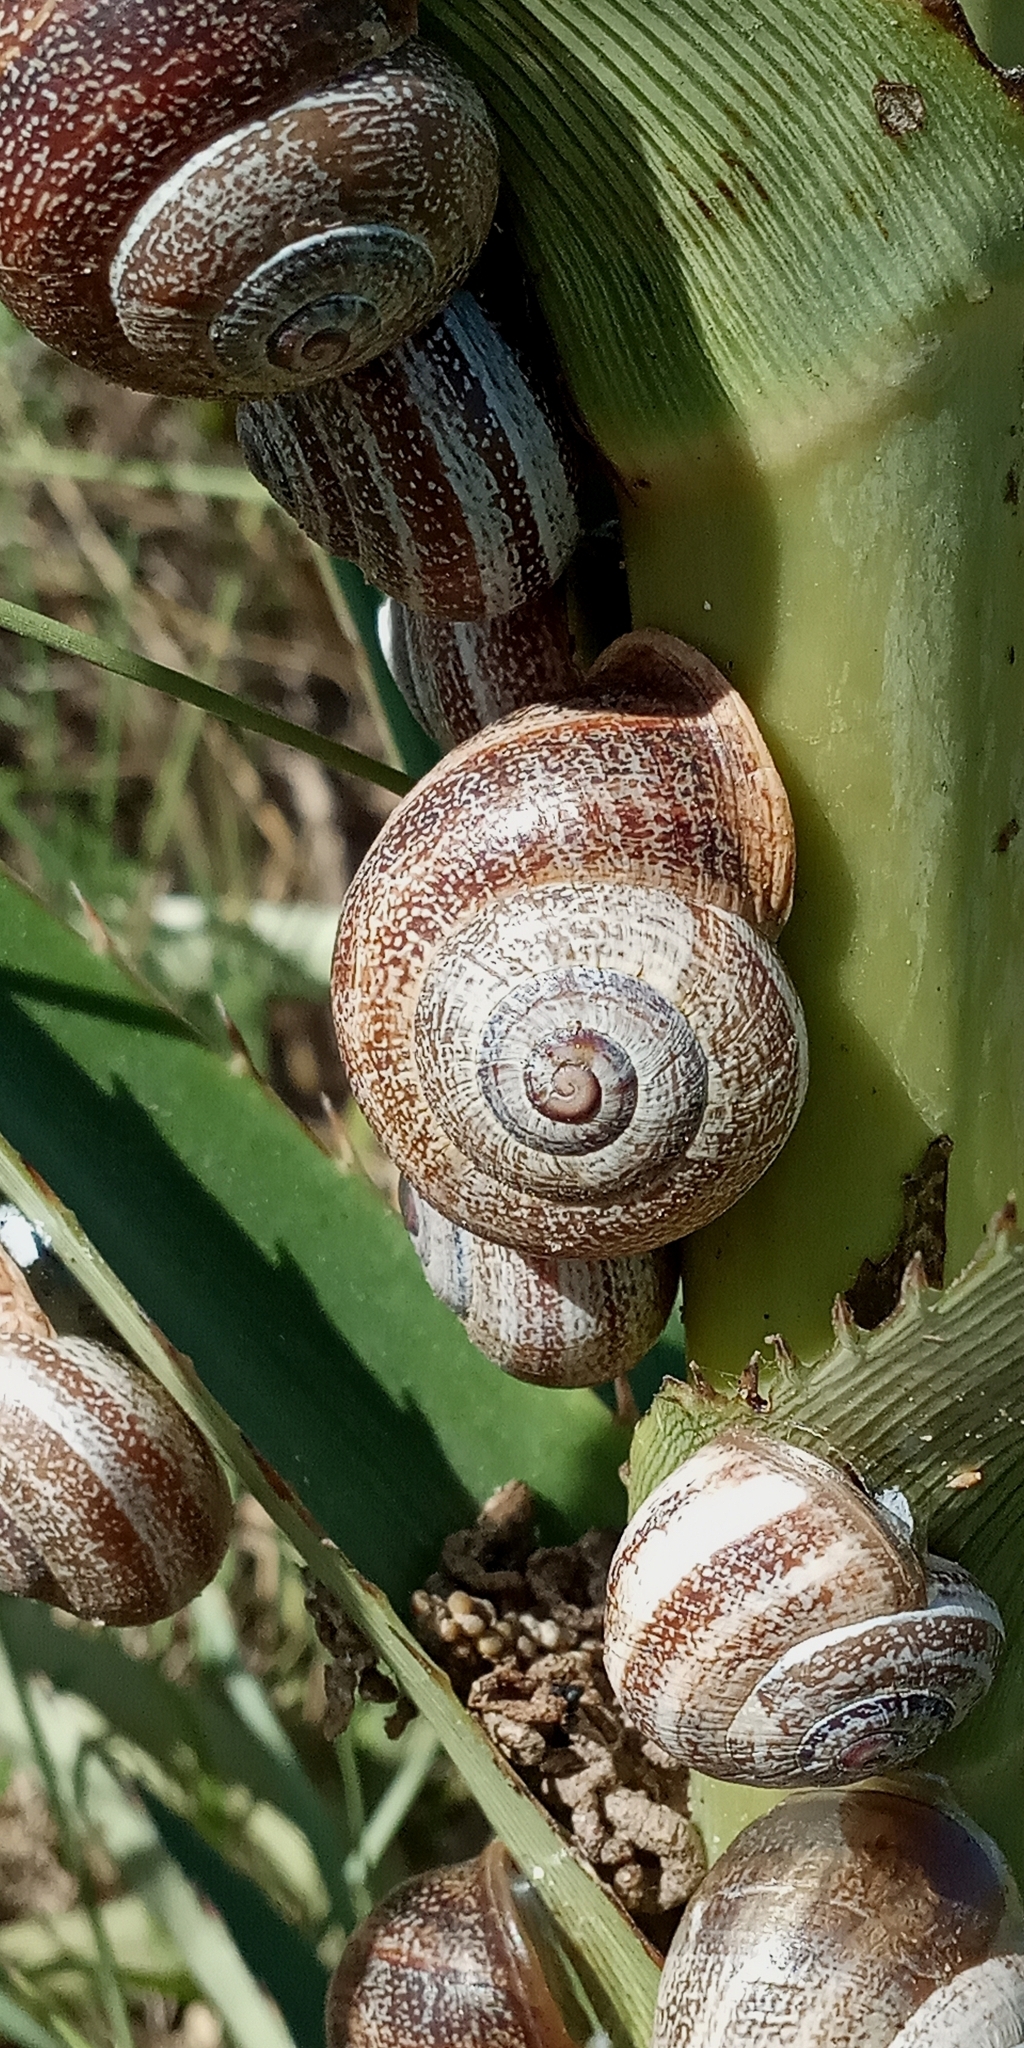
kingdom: Animalia
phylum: Mollusca
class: Gastropoda
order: Stylommatophora
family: Helicidae
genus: Otala
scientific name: Otala punctata
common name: Milk snail
